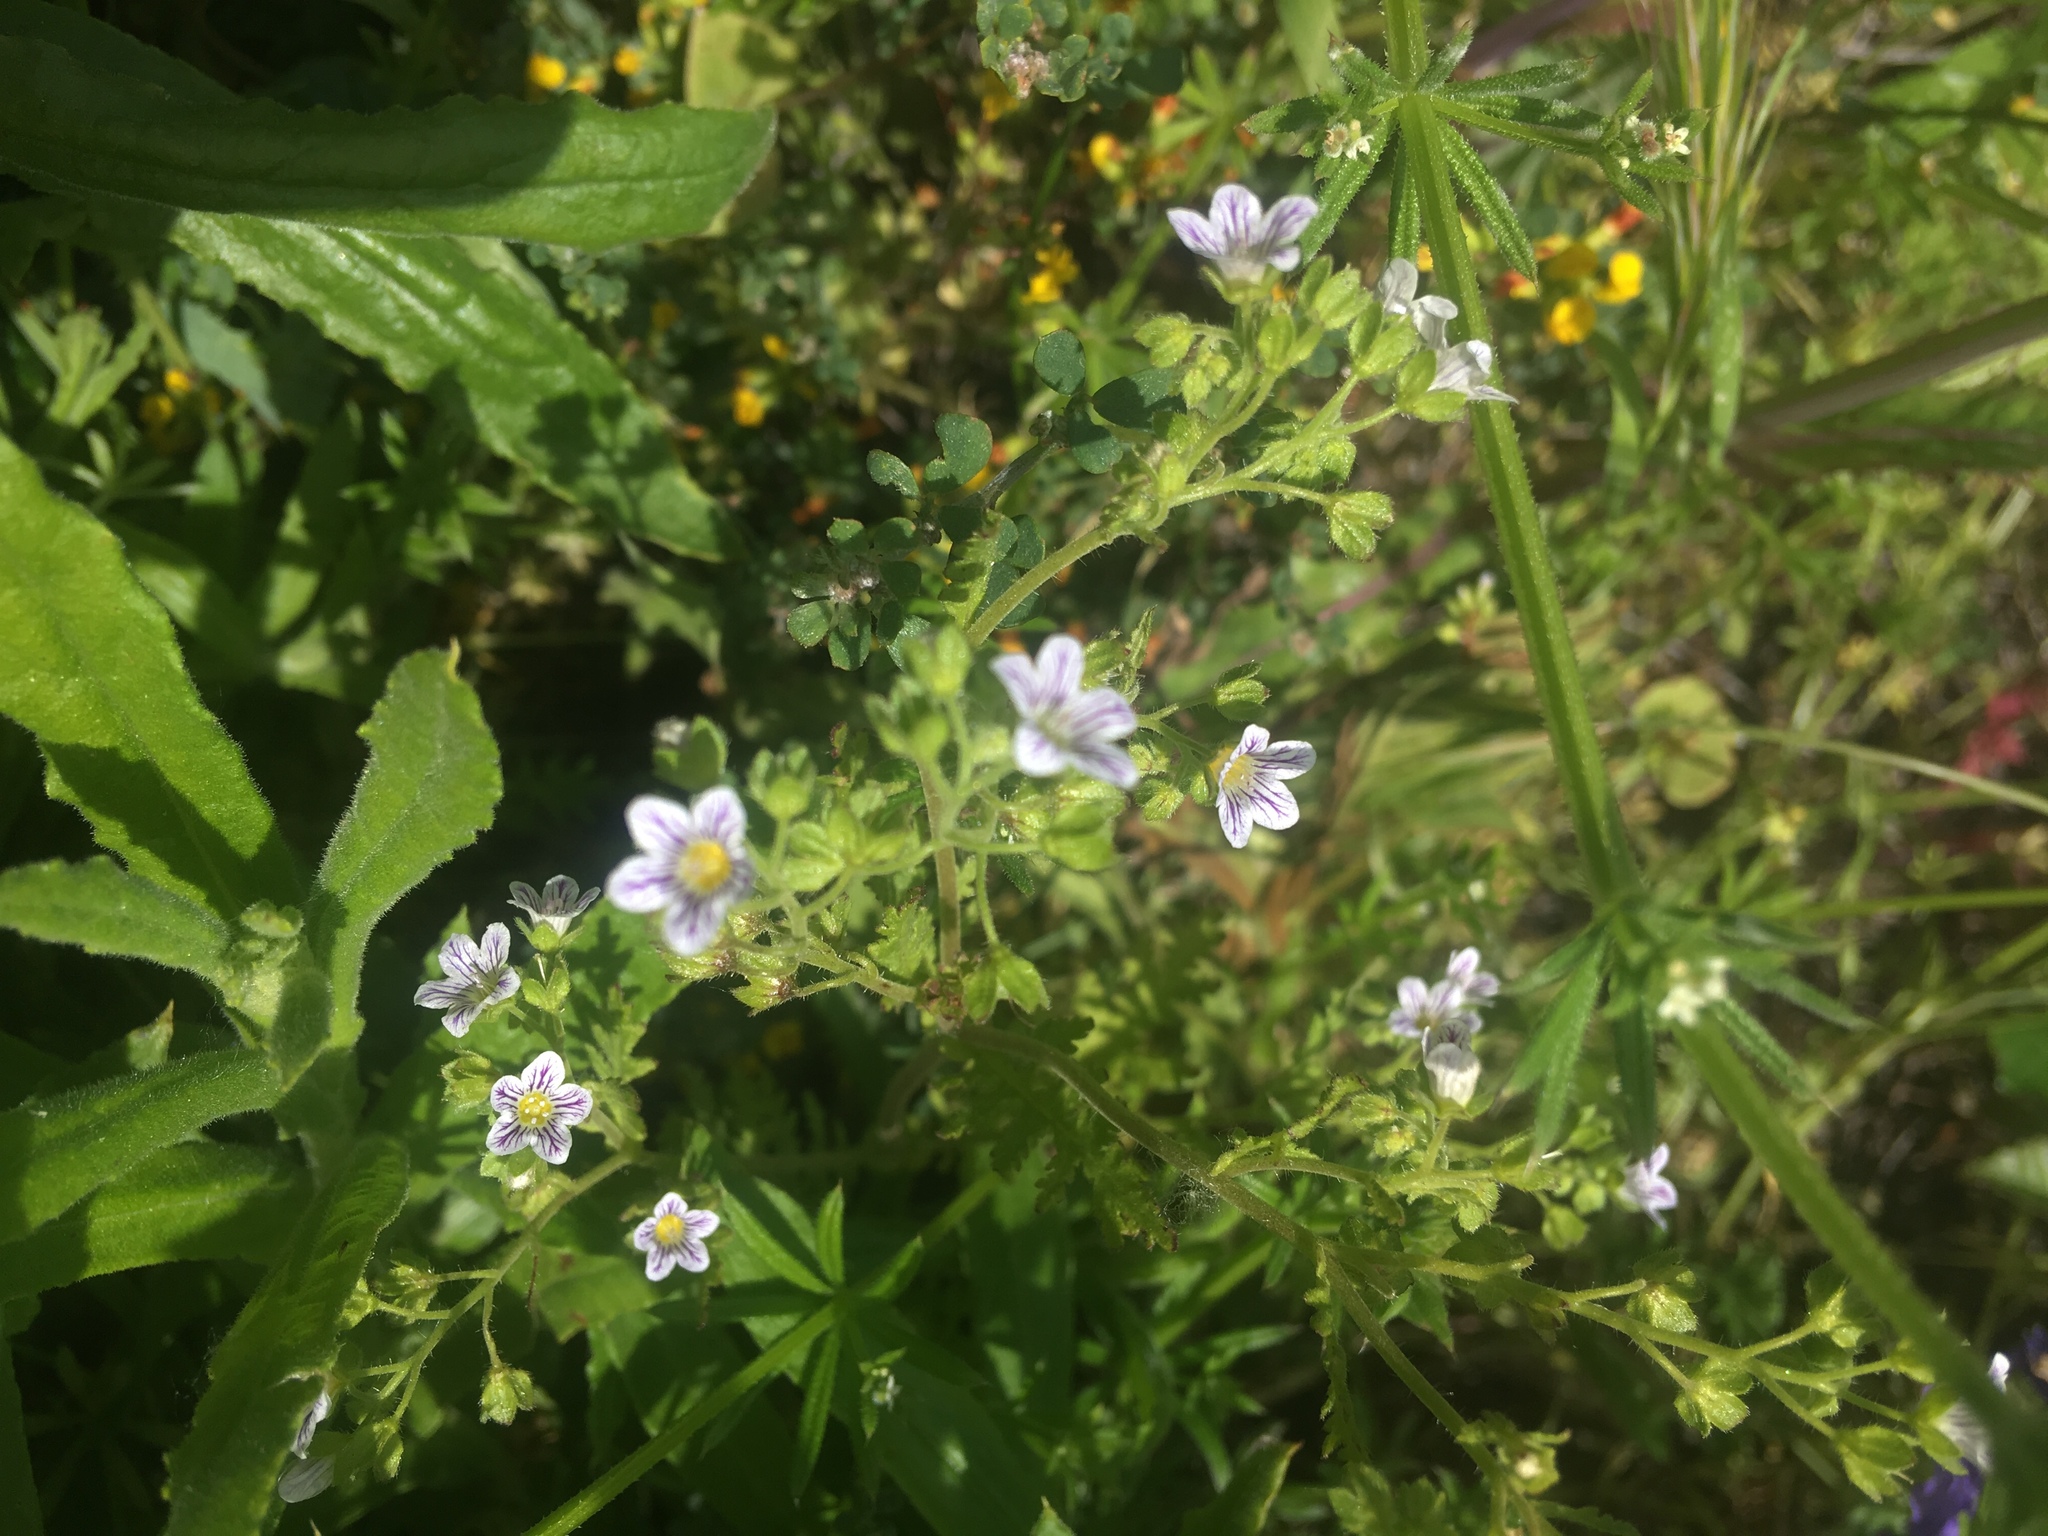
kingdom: Plantae
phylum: Tracheophyta
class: Magnoliopsida
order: Boraginales
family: Hydrophyllaceae
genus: Eucrypta
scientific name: Eucrypta chrysanthemifolia
